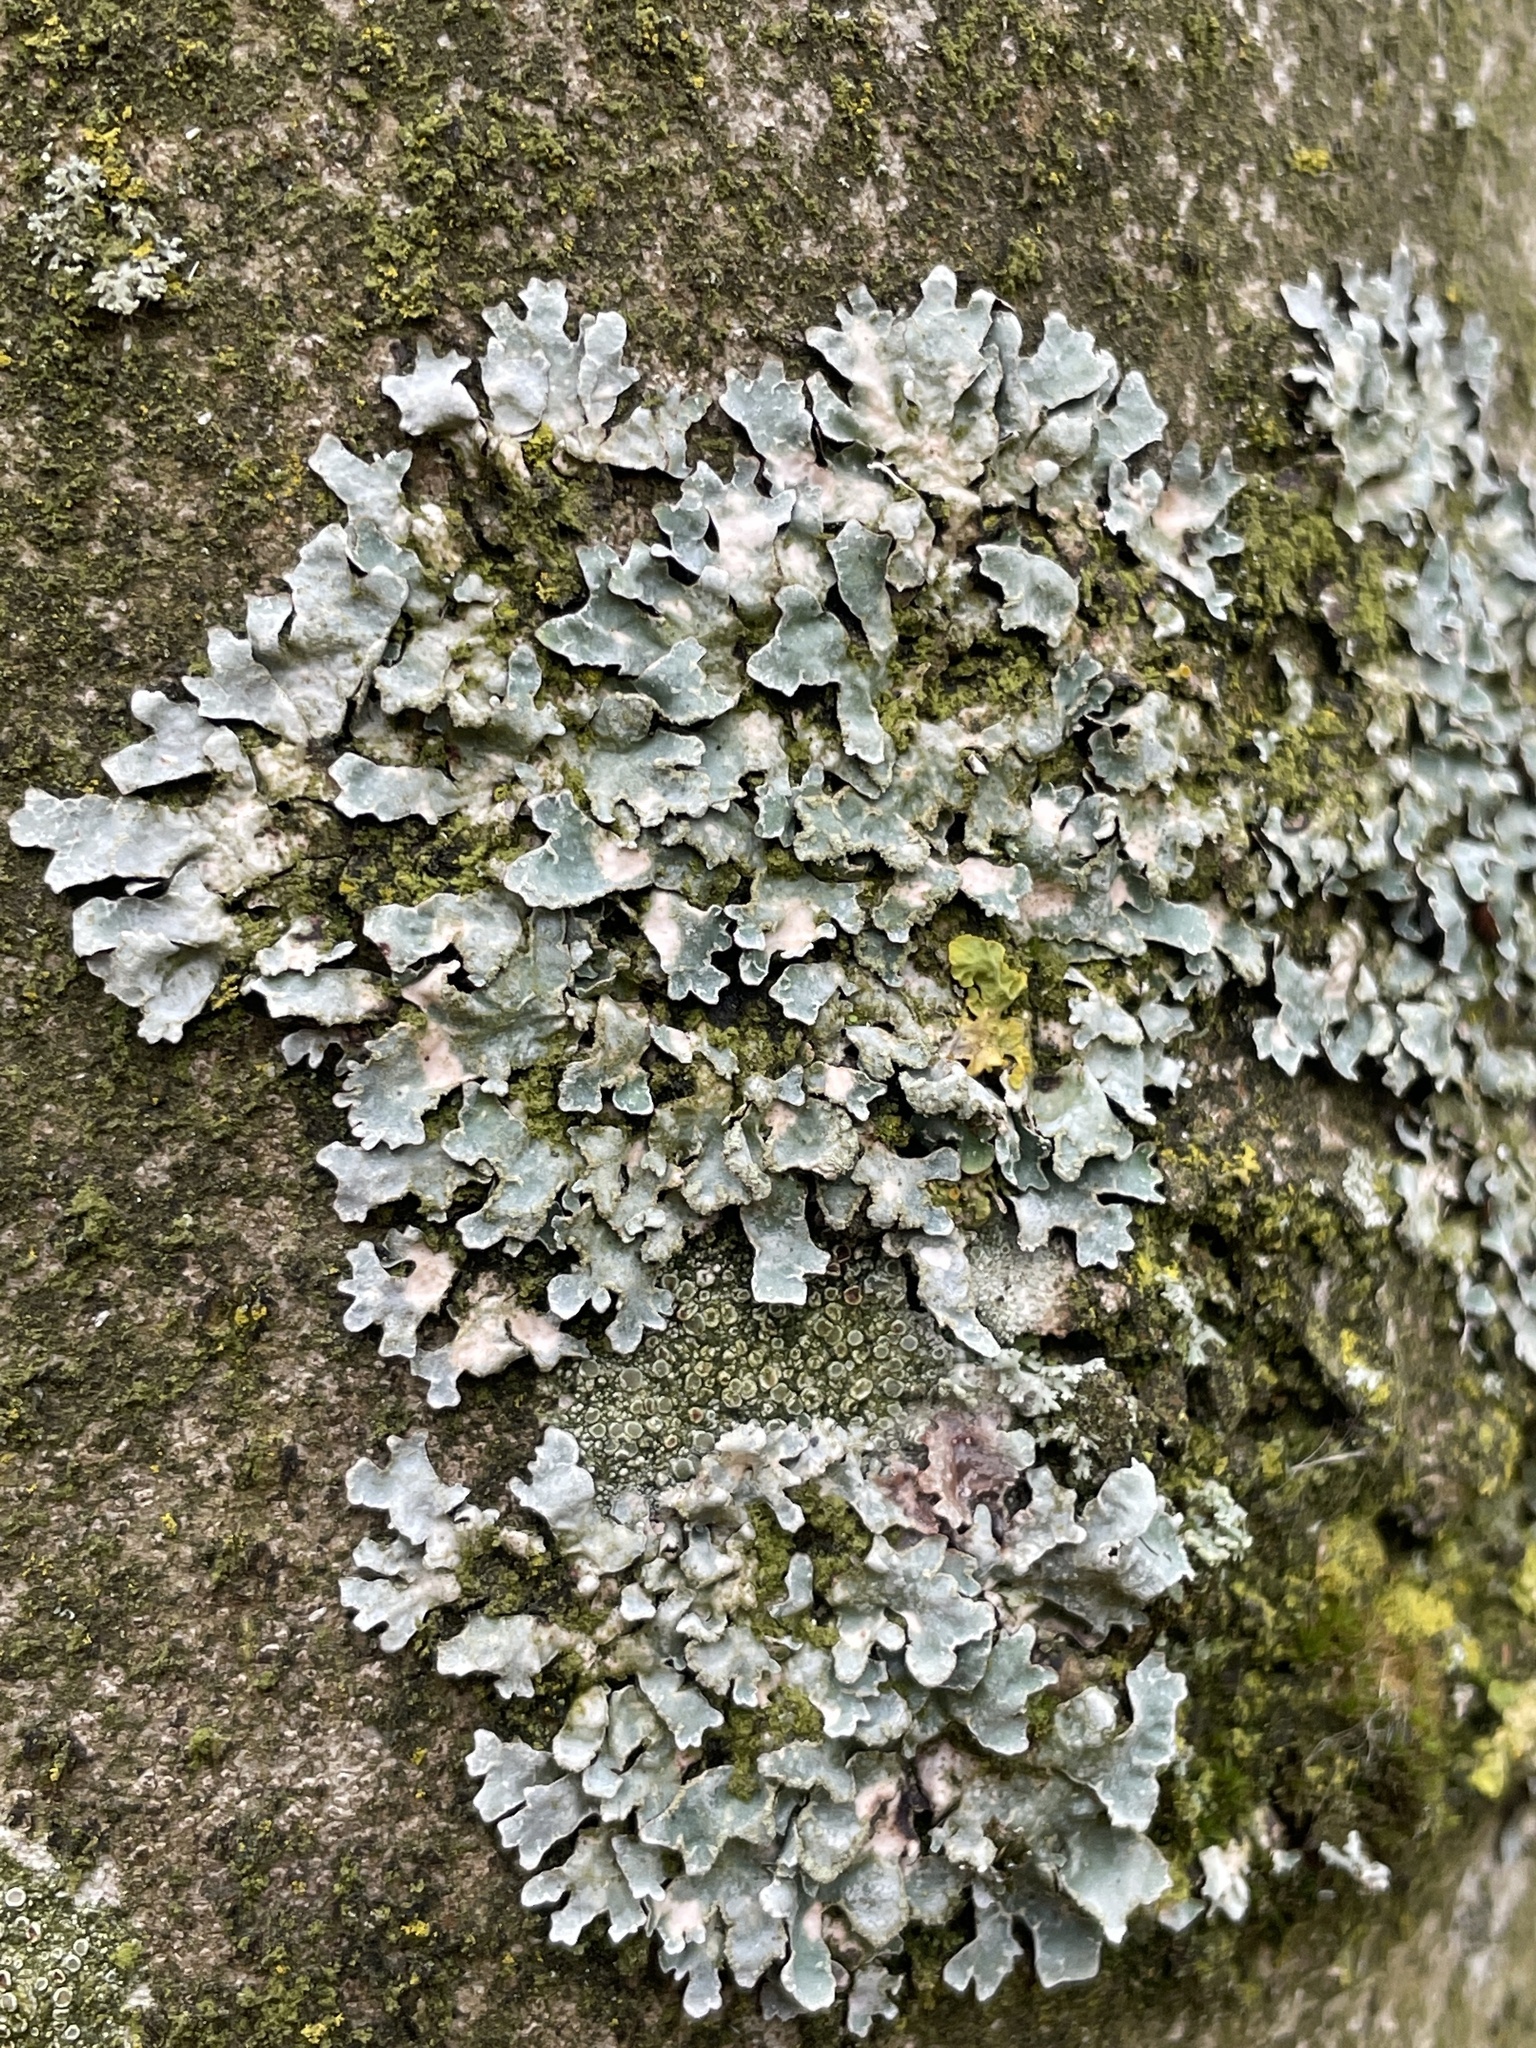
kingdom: Fungi
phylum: Ascomycota
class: Lecanoromycetes
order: Lecanorales
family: Parmeliaceae
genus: Parmelia
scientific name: Parmelia sulcata
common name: Netted shield lichen
